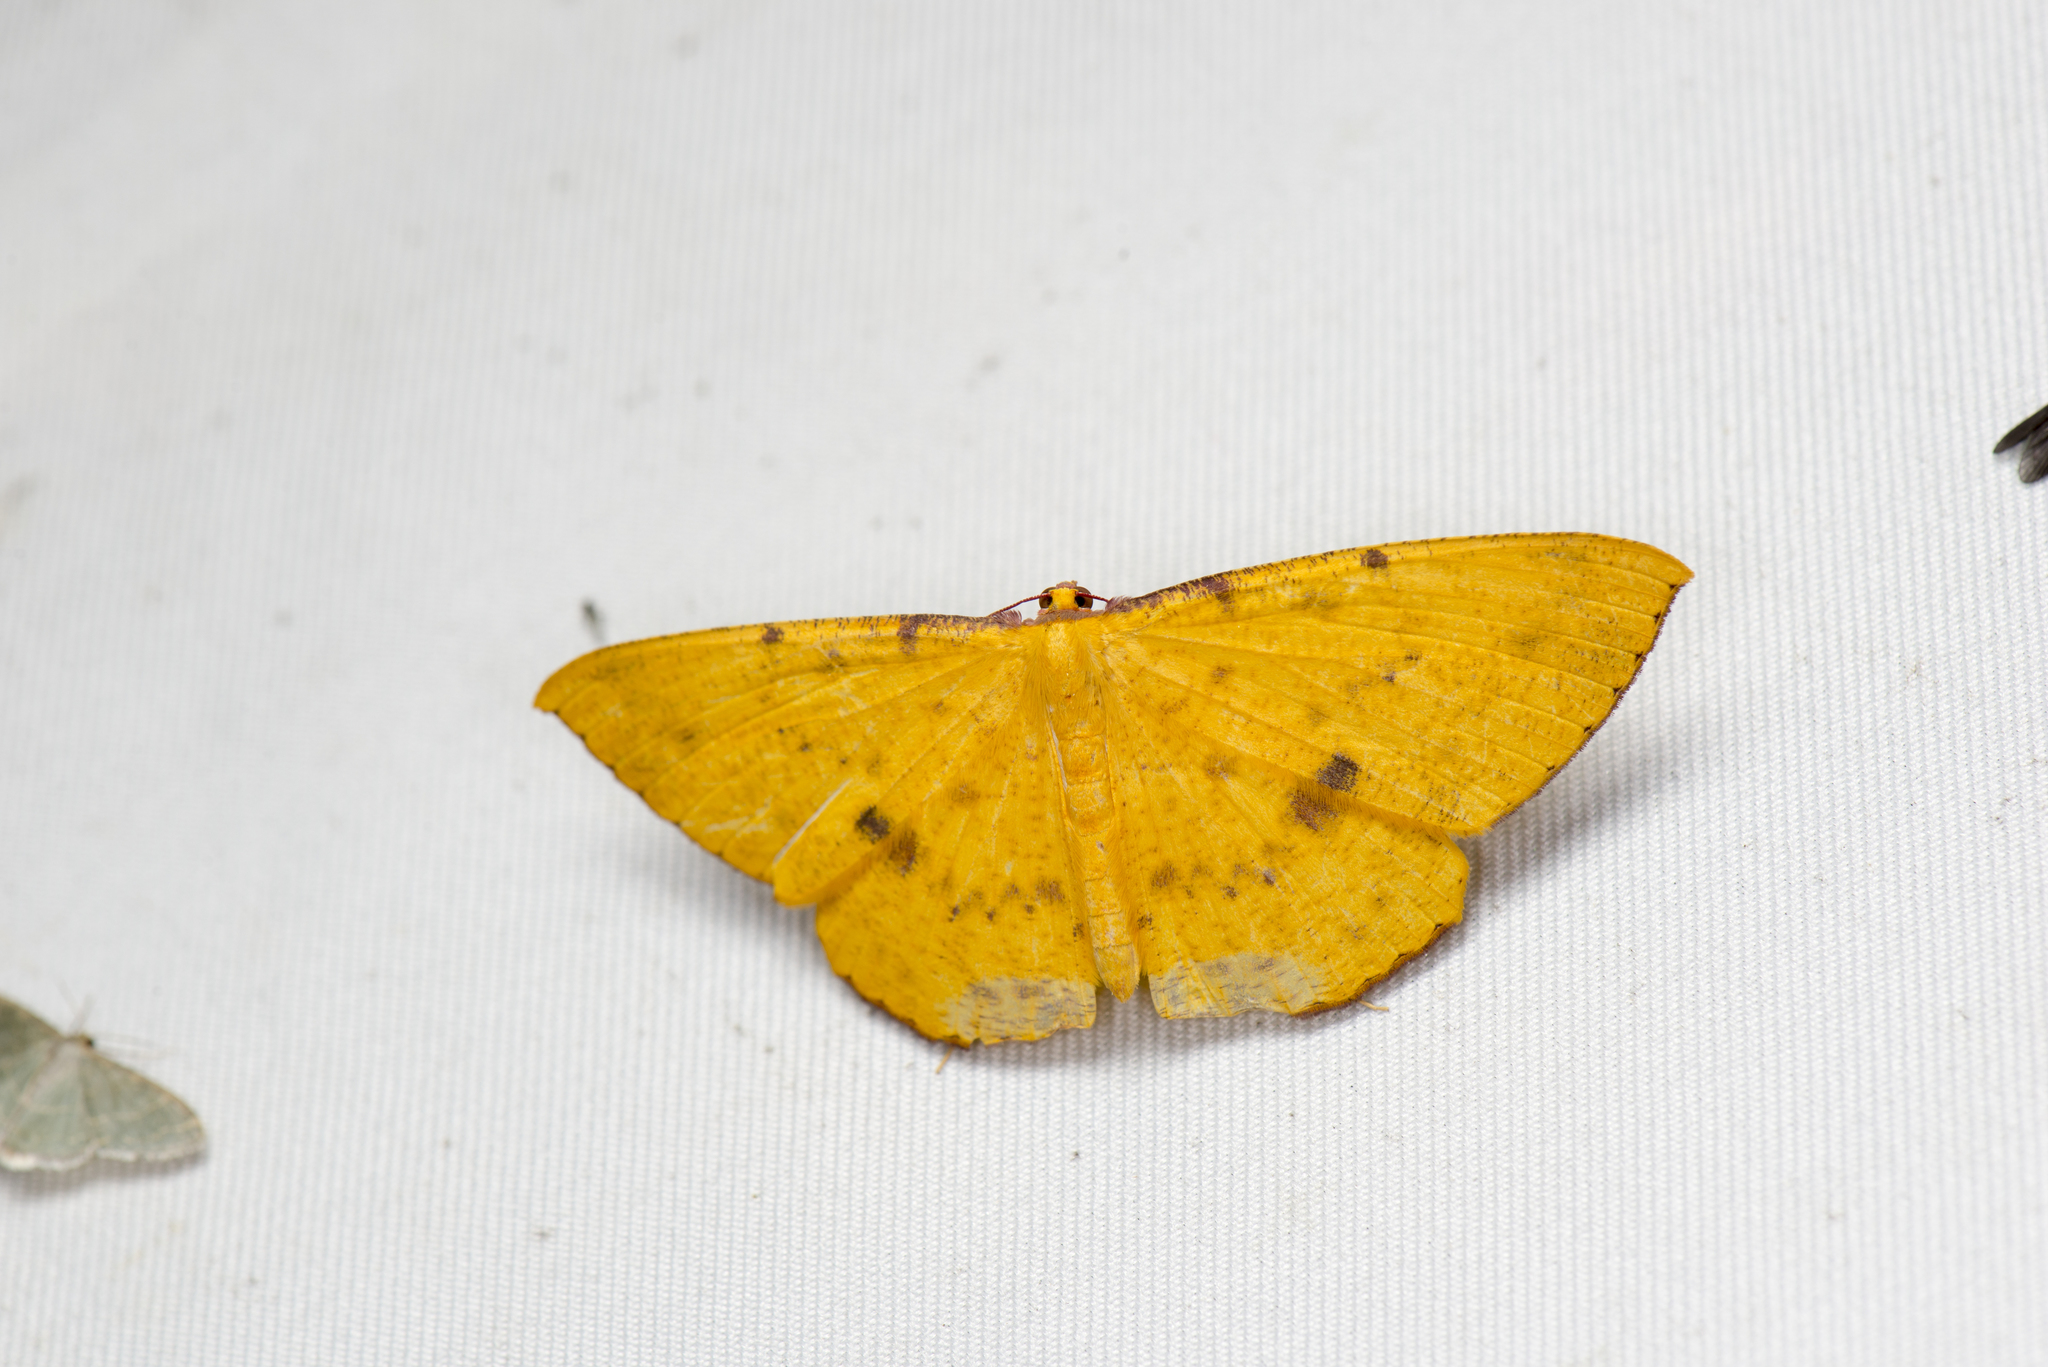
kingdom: Animalia
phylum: Arthropoda
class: Insecta
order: Lepidoptera
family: Geometridae
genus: Eumelea
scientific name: Eumelea ludovicata
